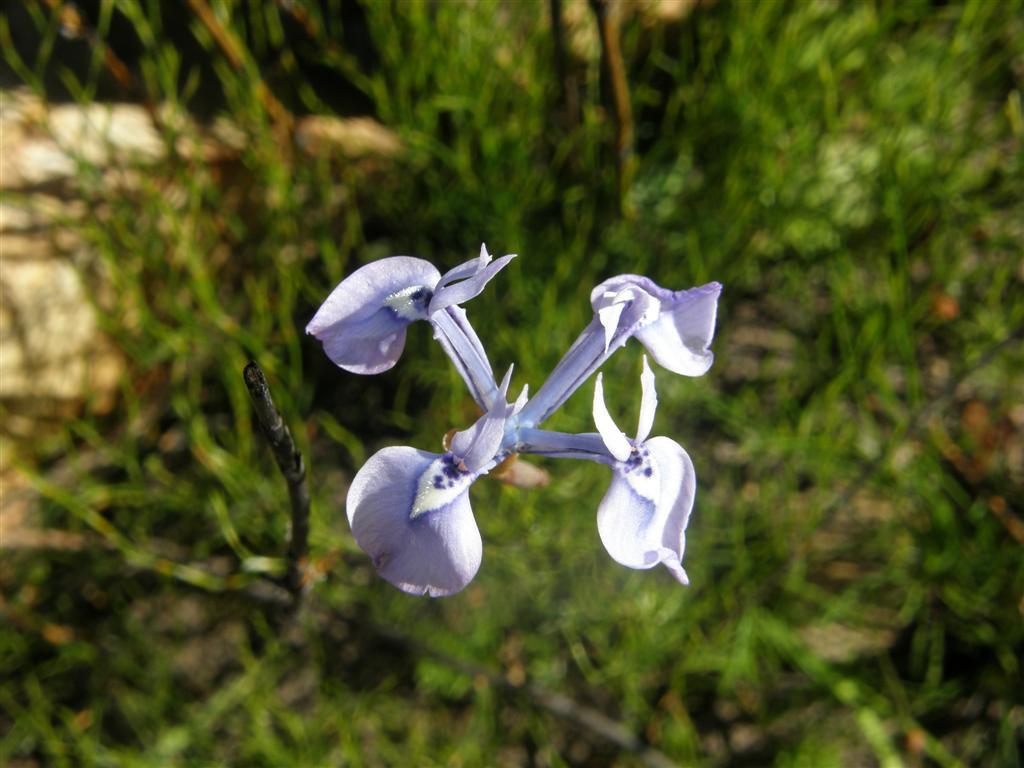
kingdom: Plantae
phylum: Tracheophyta
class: Liliopsida
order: Asparagales
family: Iridaceae
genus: Moraea
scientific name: Moraea tripetala
